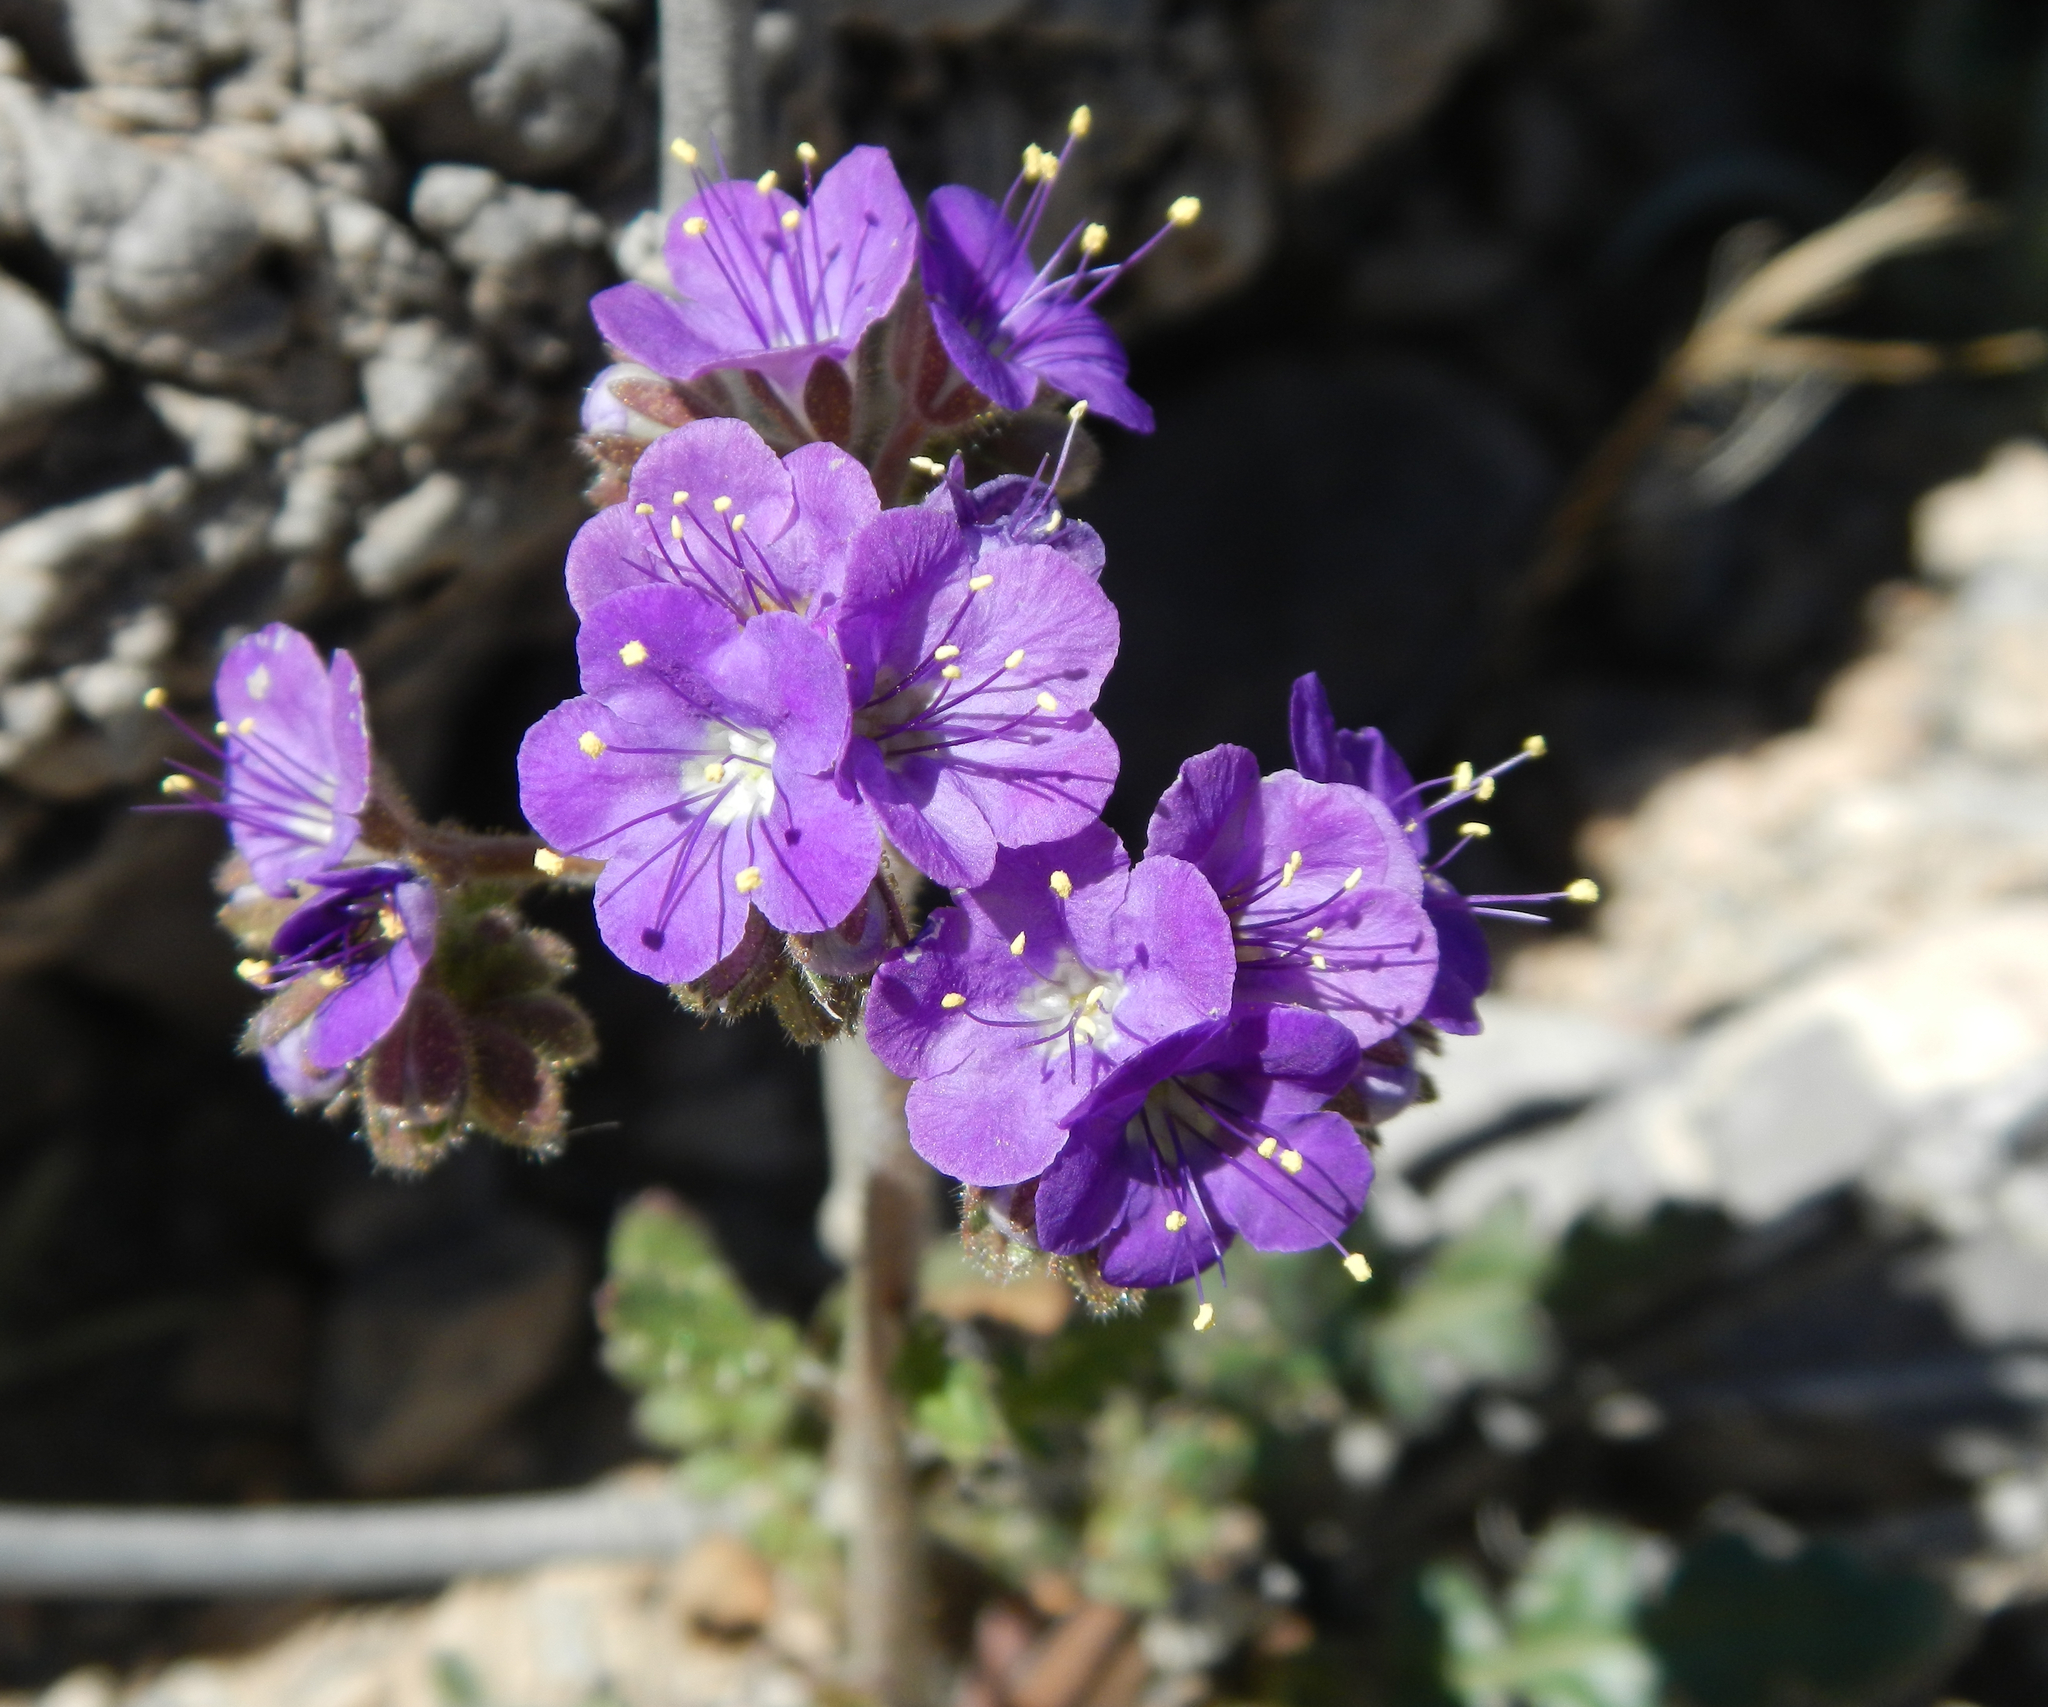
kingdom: Plantae
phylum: Tracheophyta
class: Magnoliopsida
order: Boraginales
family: Hydrophyllaceae
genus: Phacelia
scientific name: Phacelia crenulata
